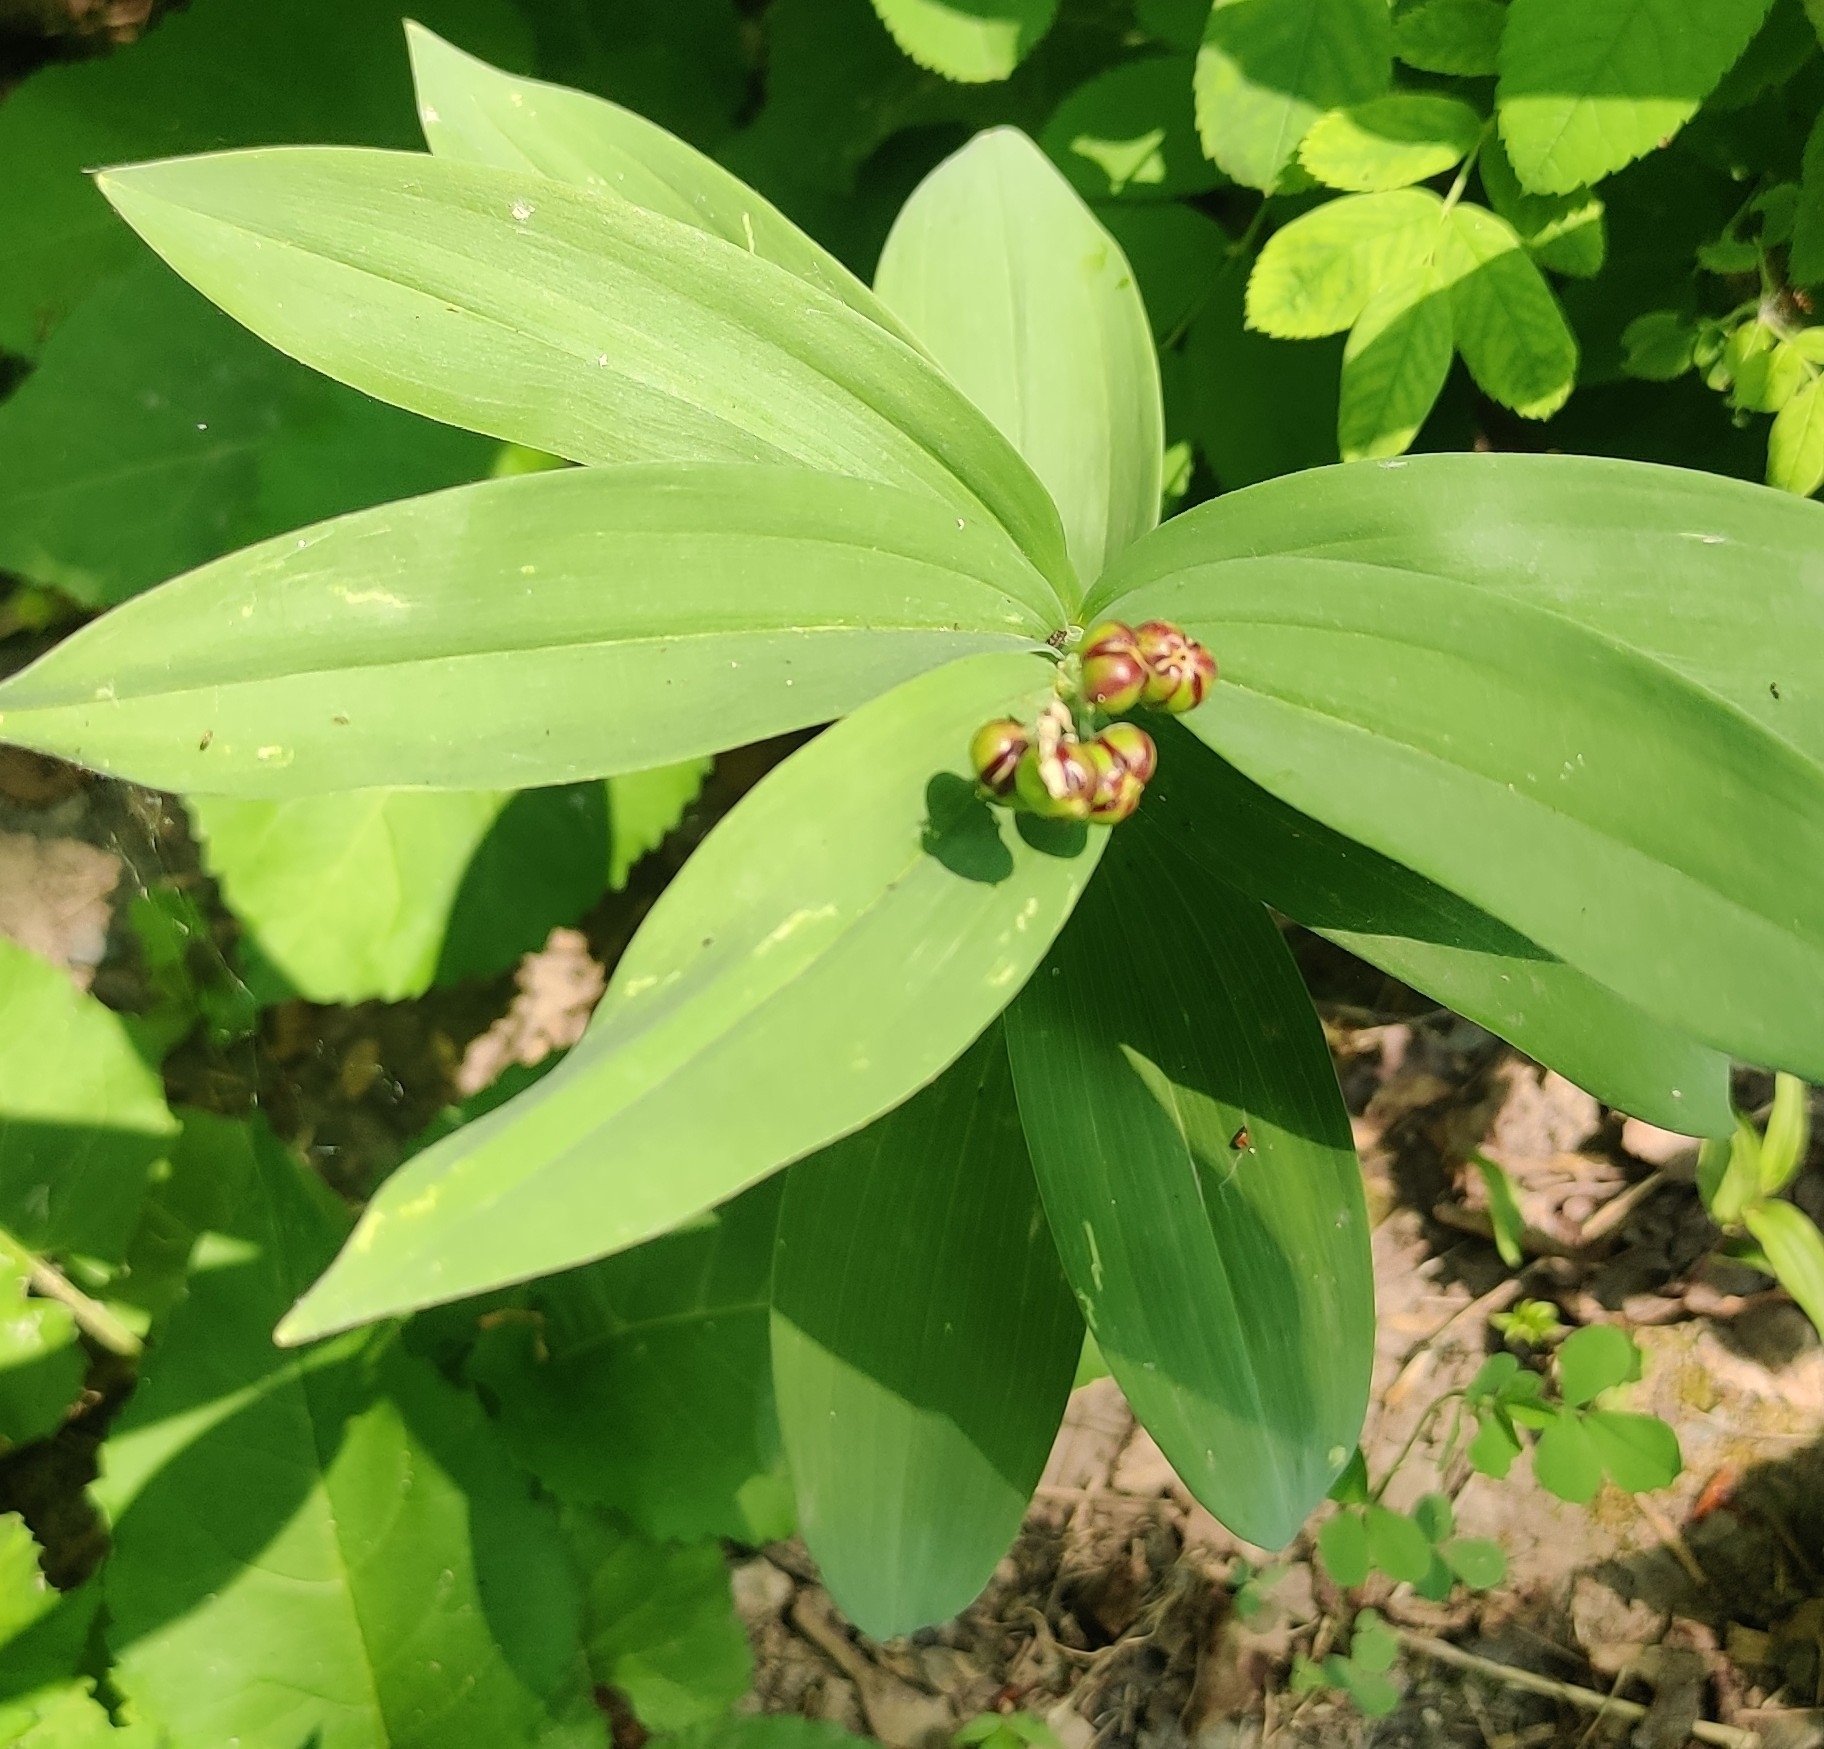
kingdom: Plantae
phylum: Tracheophyta
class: Liliopsida
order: Asparagales
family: Asparagaceae
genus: Maianthemum
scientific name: Maianthemum stellatum
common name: Little false solomon's seal
